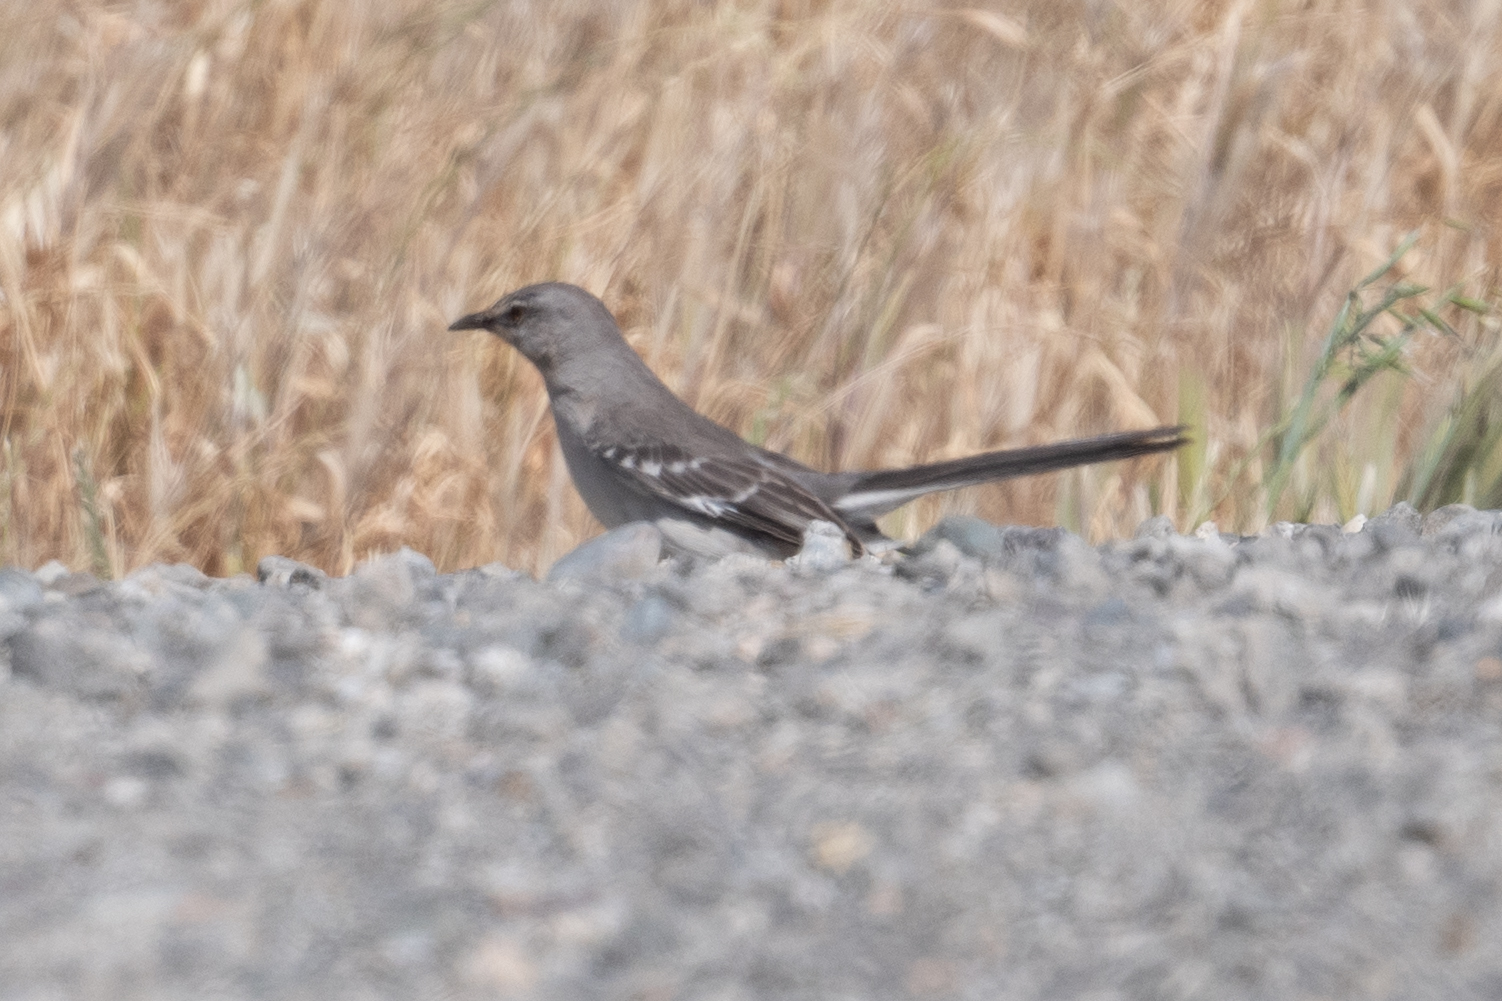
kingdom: Animalia
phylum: Chordata
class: Aves
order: Passeriformes
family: Mimidae
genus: Mimus
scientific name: Mimus polyglottos
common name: Northern mockingbird
